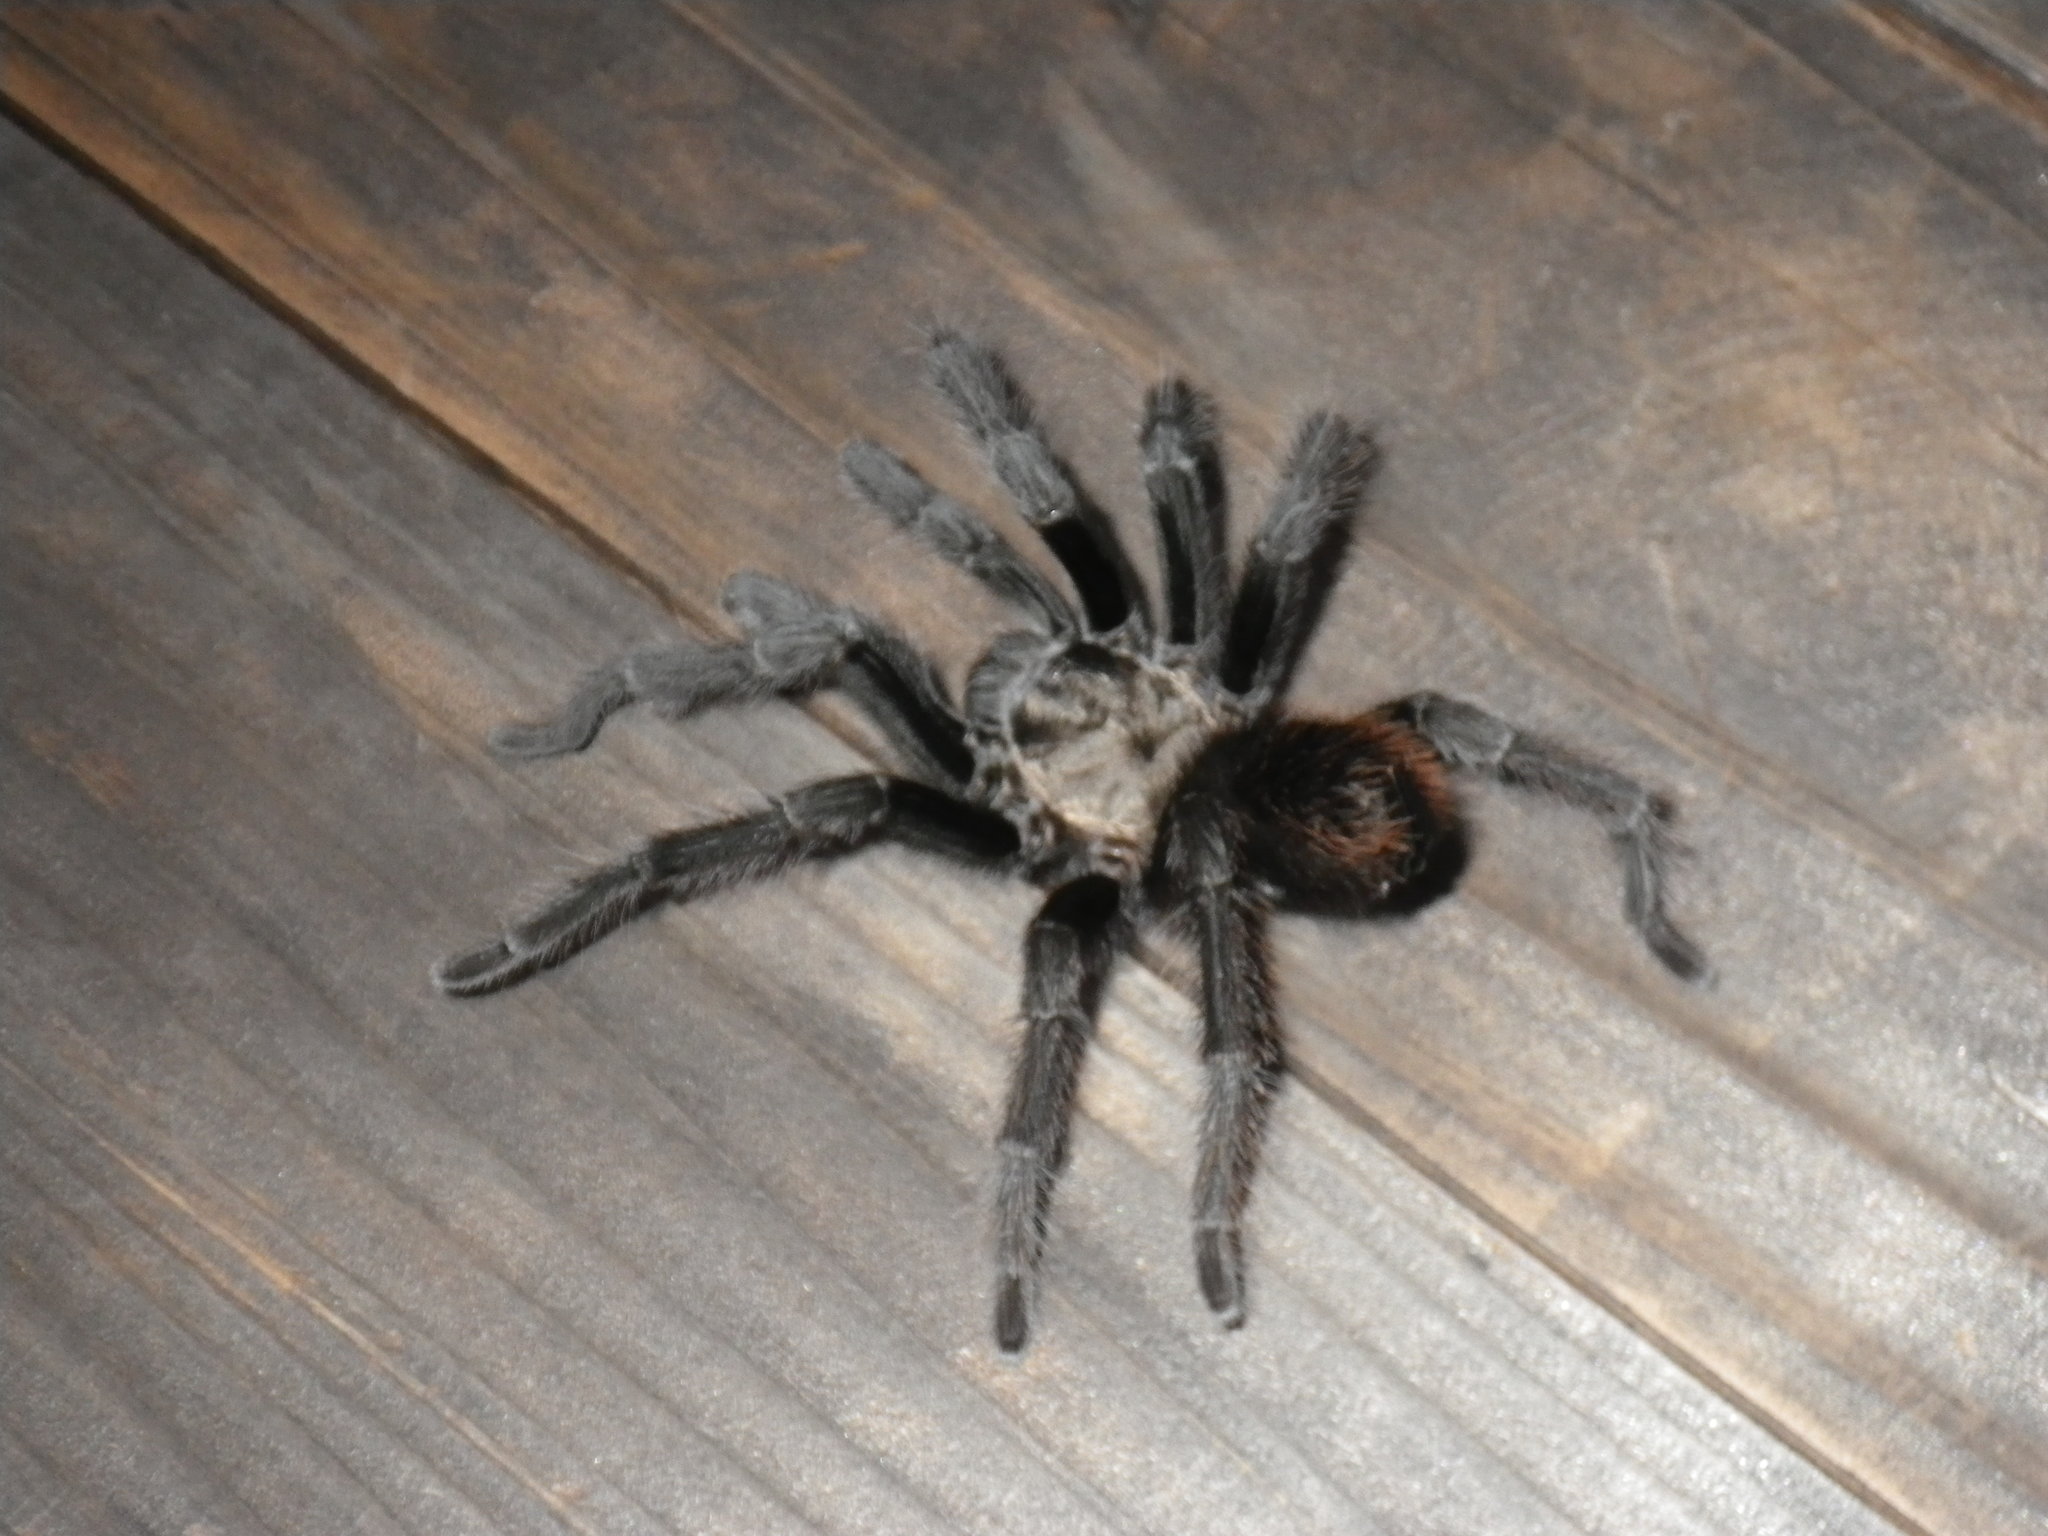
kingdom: Animalia
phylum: Arthropoda
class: Arachnida
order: Araneae
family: Theraphosidae
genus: Aphonopelma
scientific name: Aphonopelma iodius
